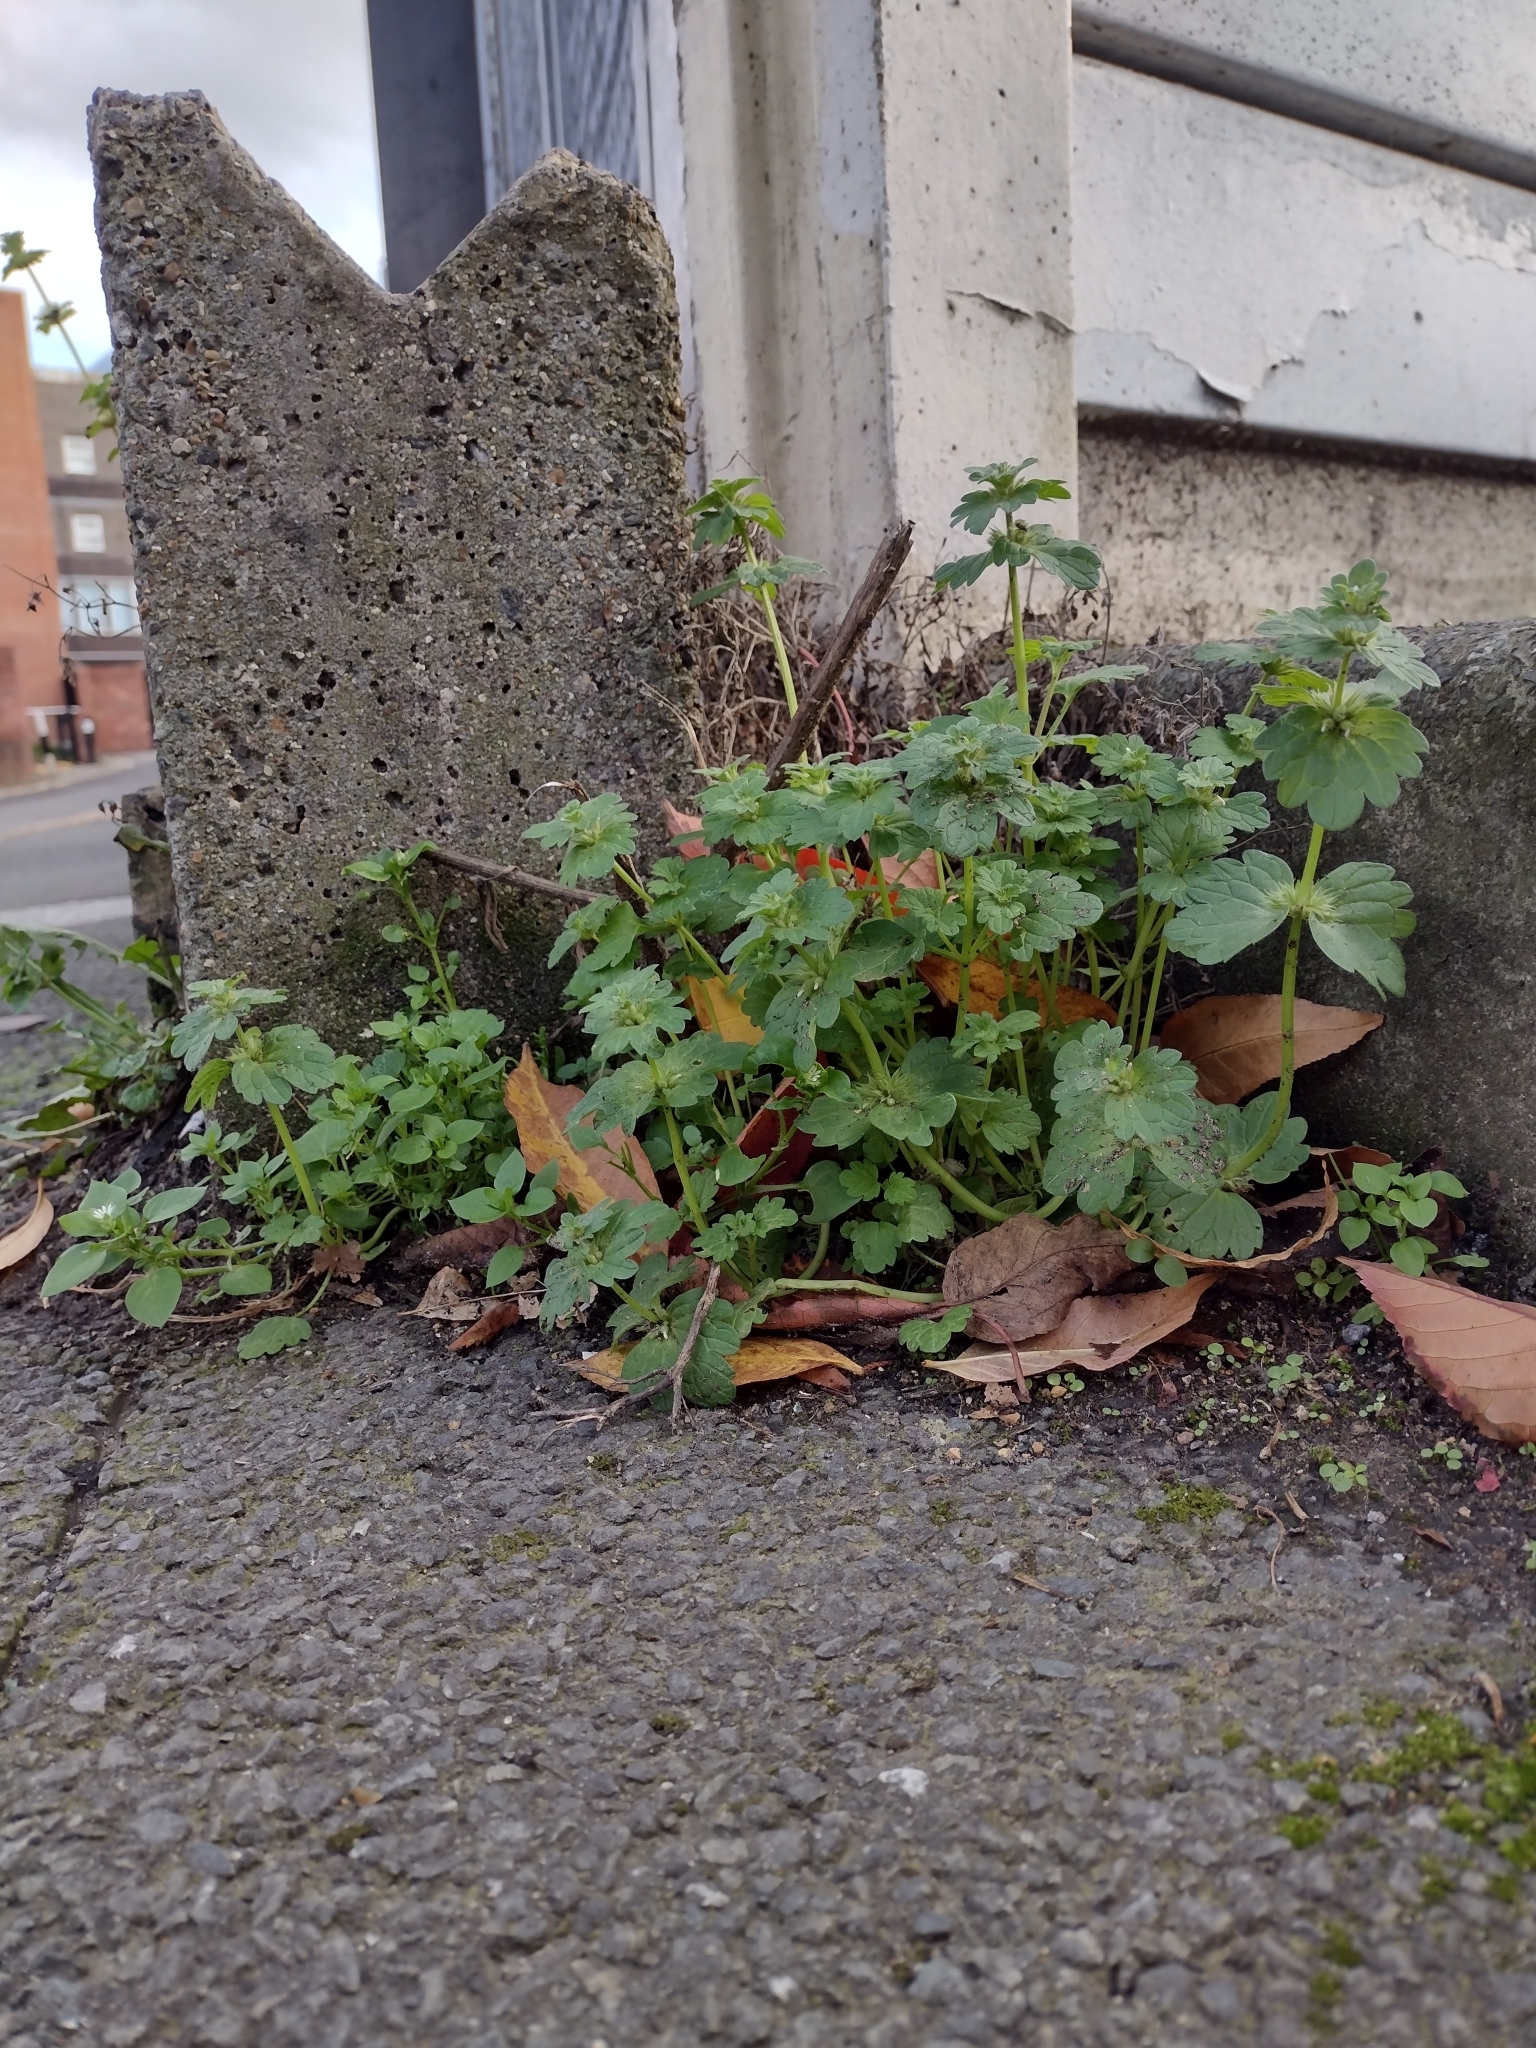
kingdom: Plantae
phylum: Tracheophyta
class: Magnoliopsida
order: Lamiales
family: Lamiaceae
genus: Lamium
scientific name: Lamium amplexicaule
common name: Henbit dead-nettle
